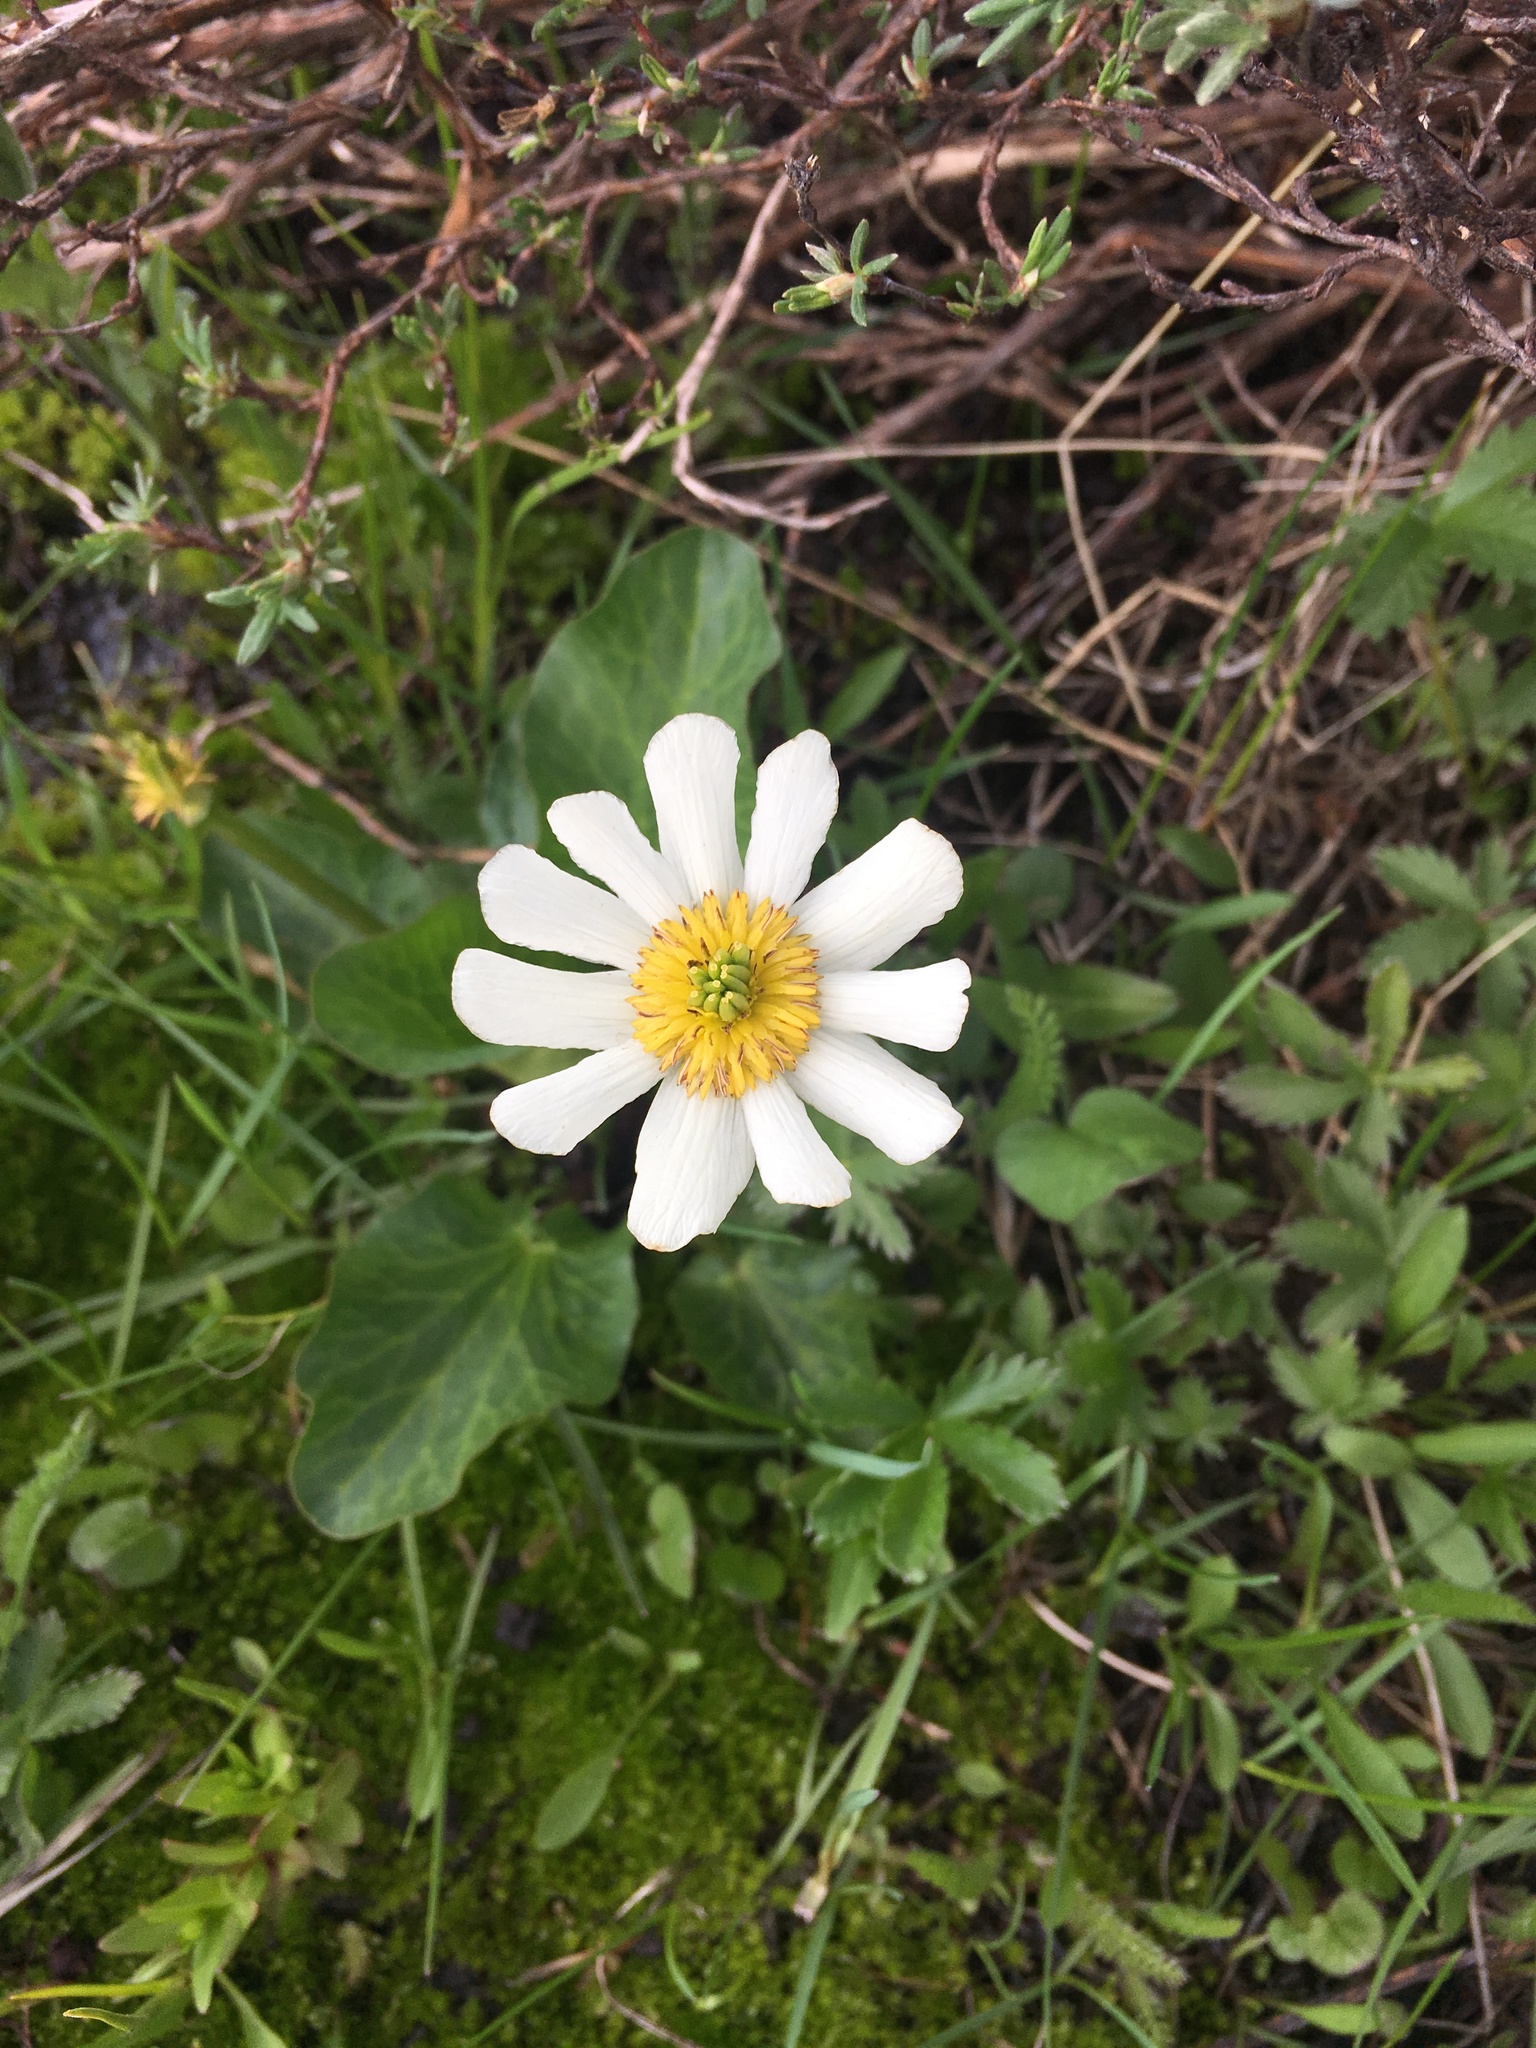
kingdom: Plantae
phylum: Tracheophyta
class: Magnoliopsida
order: Ranunculales
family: Ranunculaceae
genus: Caltha
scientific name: Caltha leptosepala
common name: Elkslip
